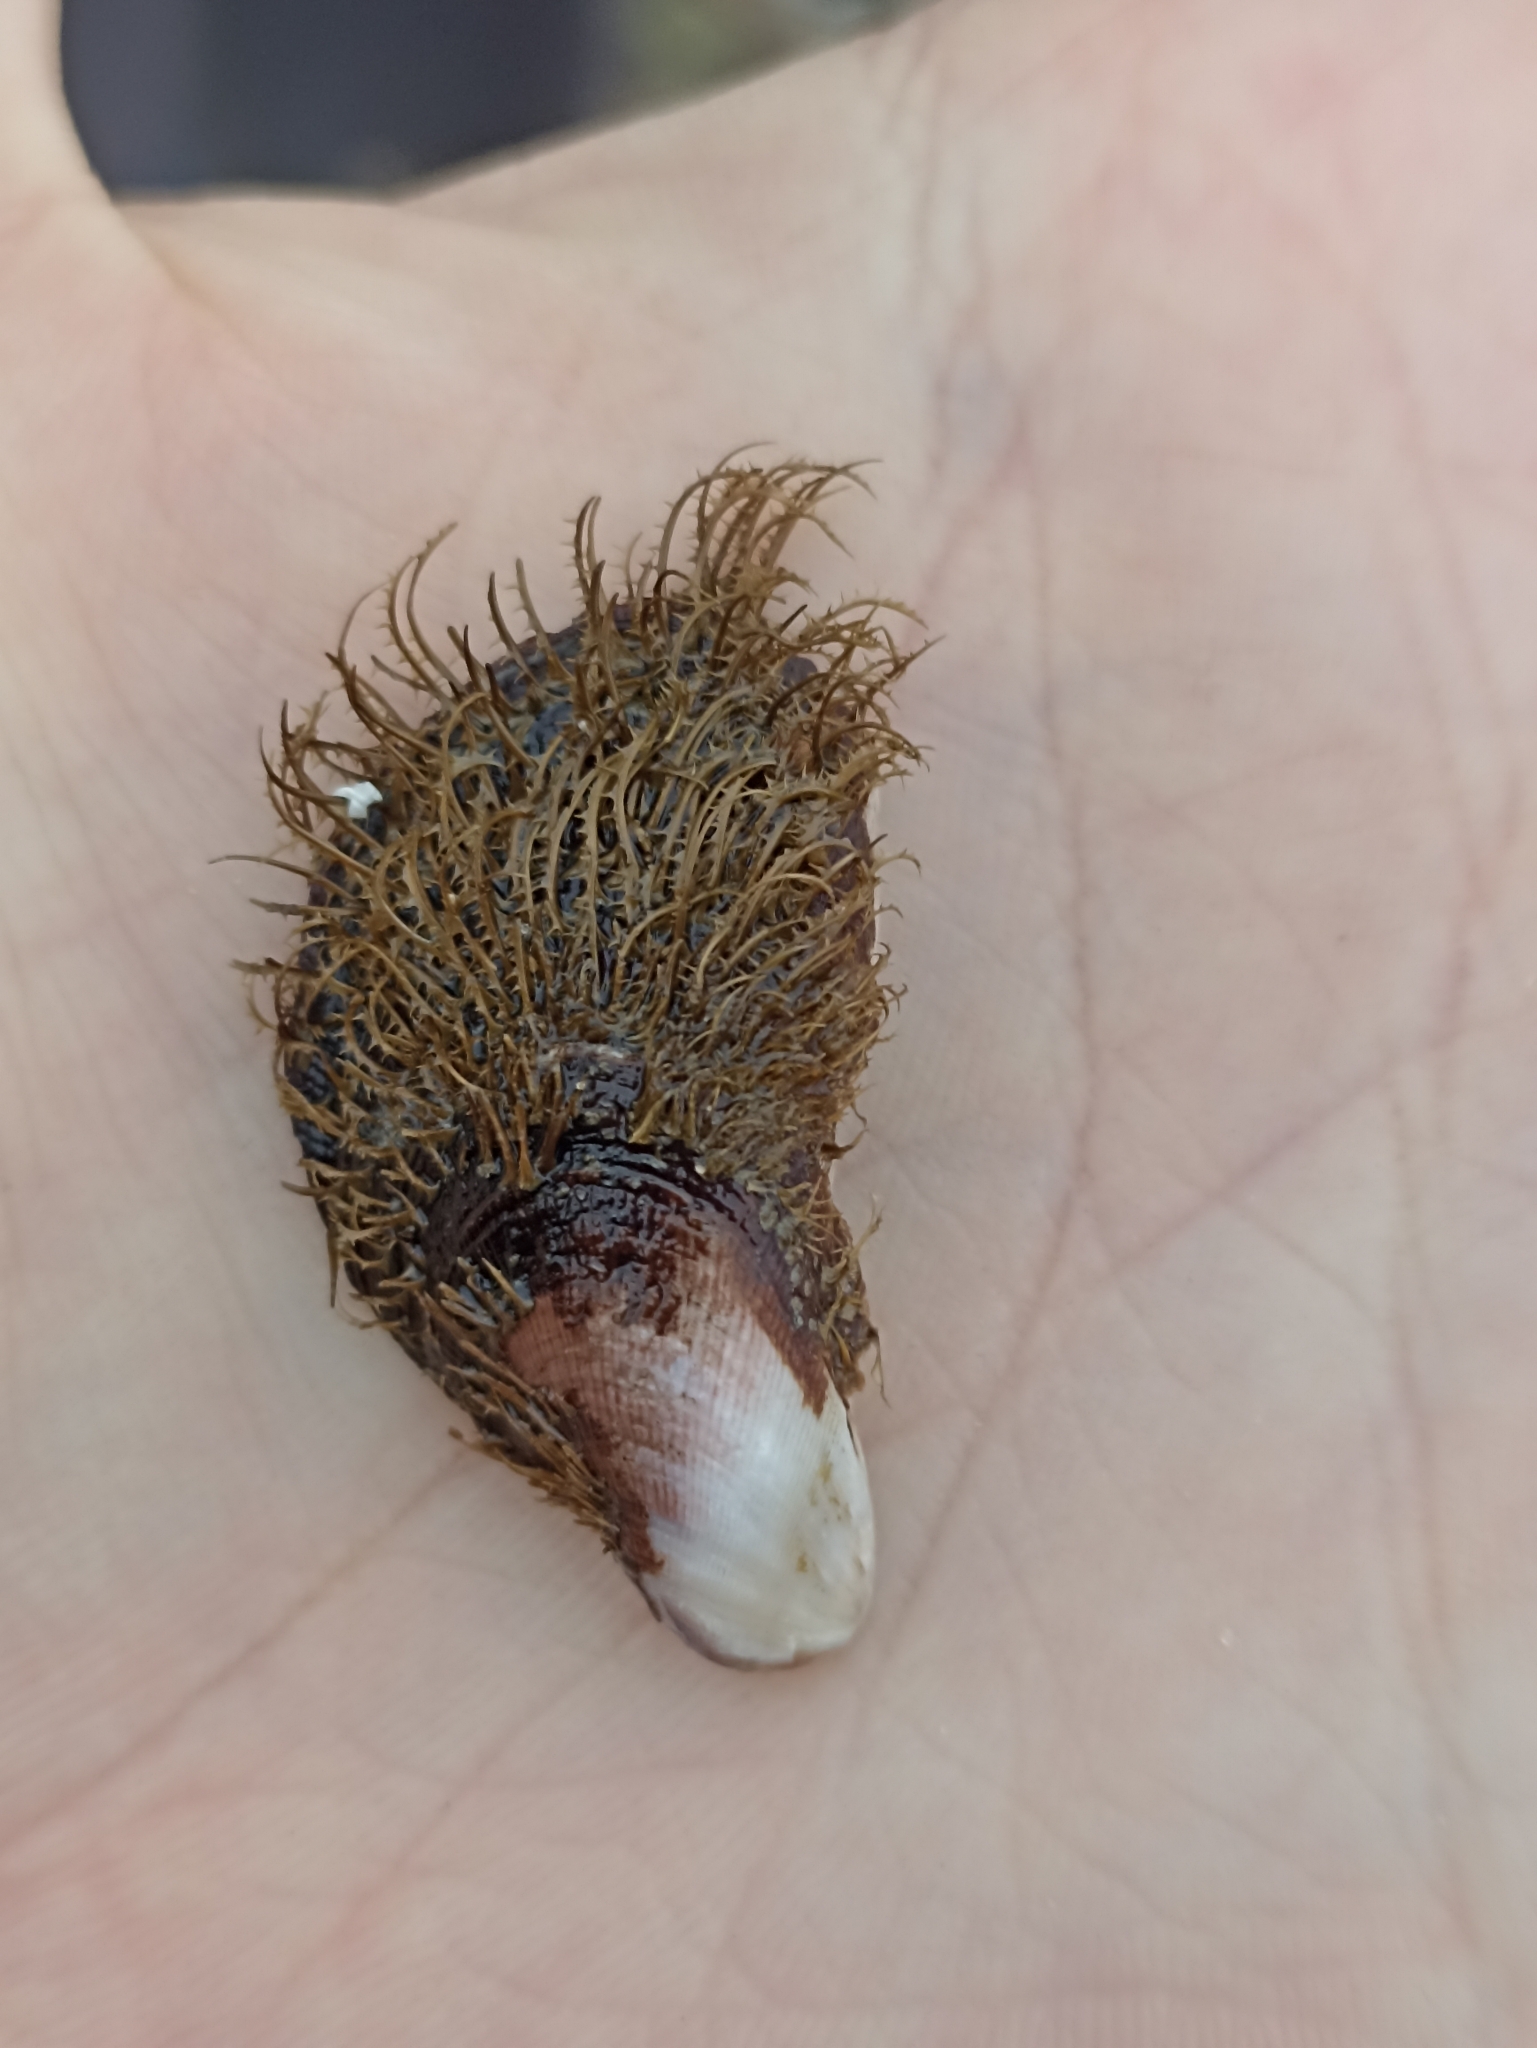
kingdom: Animalia
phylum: Mollusca
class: Bivalvia
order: Mytilida
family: Mytilidae
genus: Trichomya
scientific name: Trichomya hirsuta
